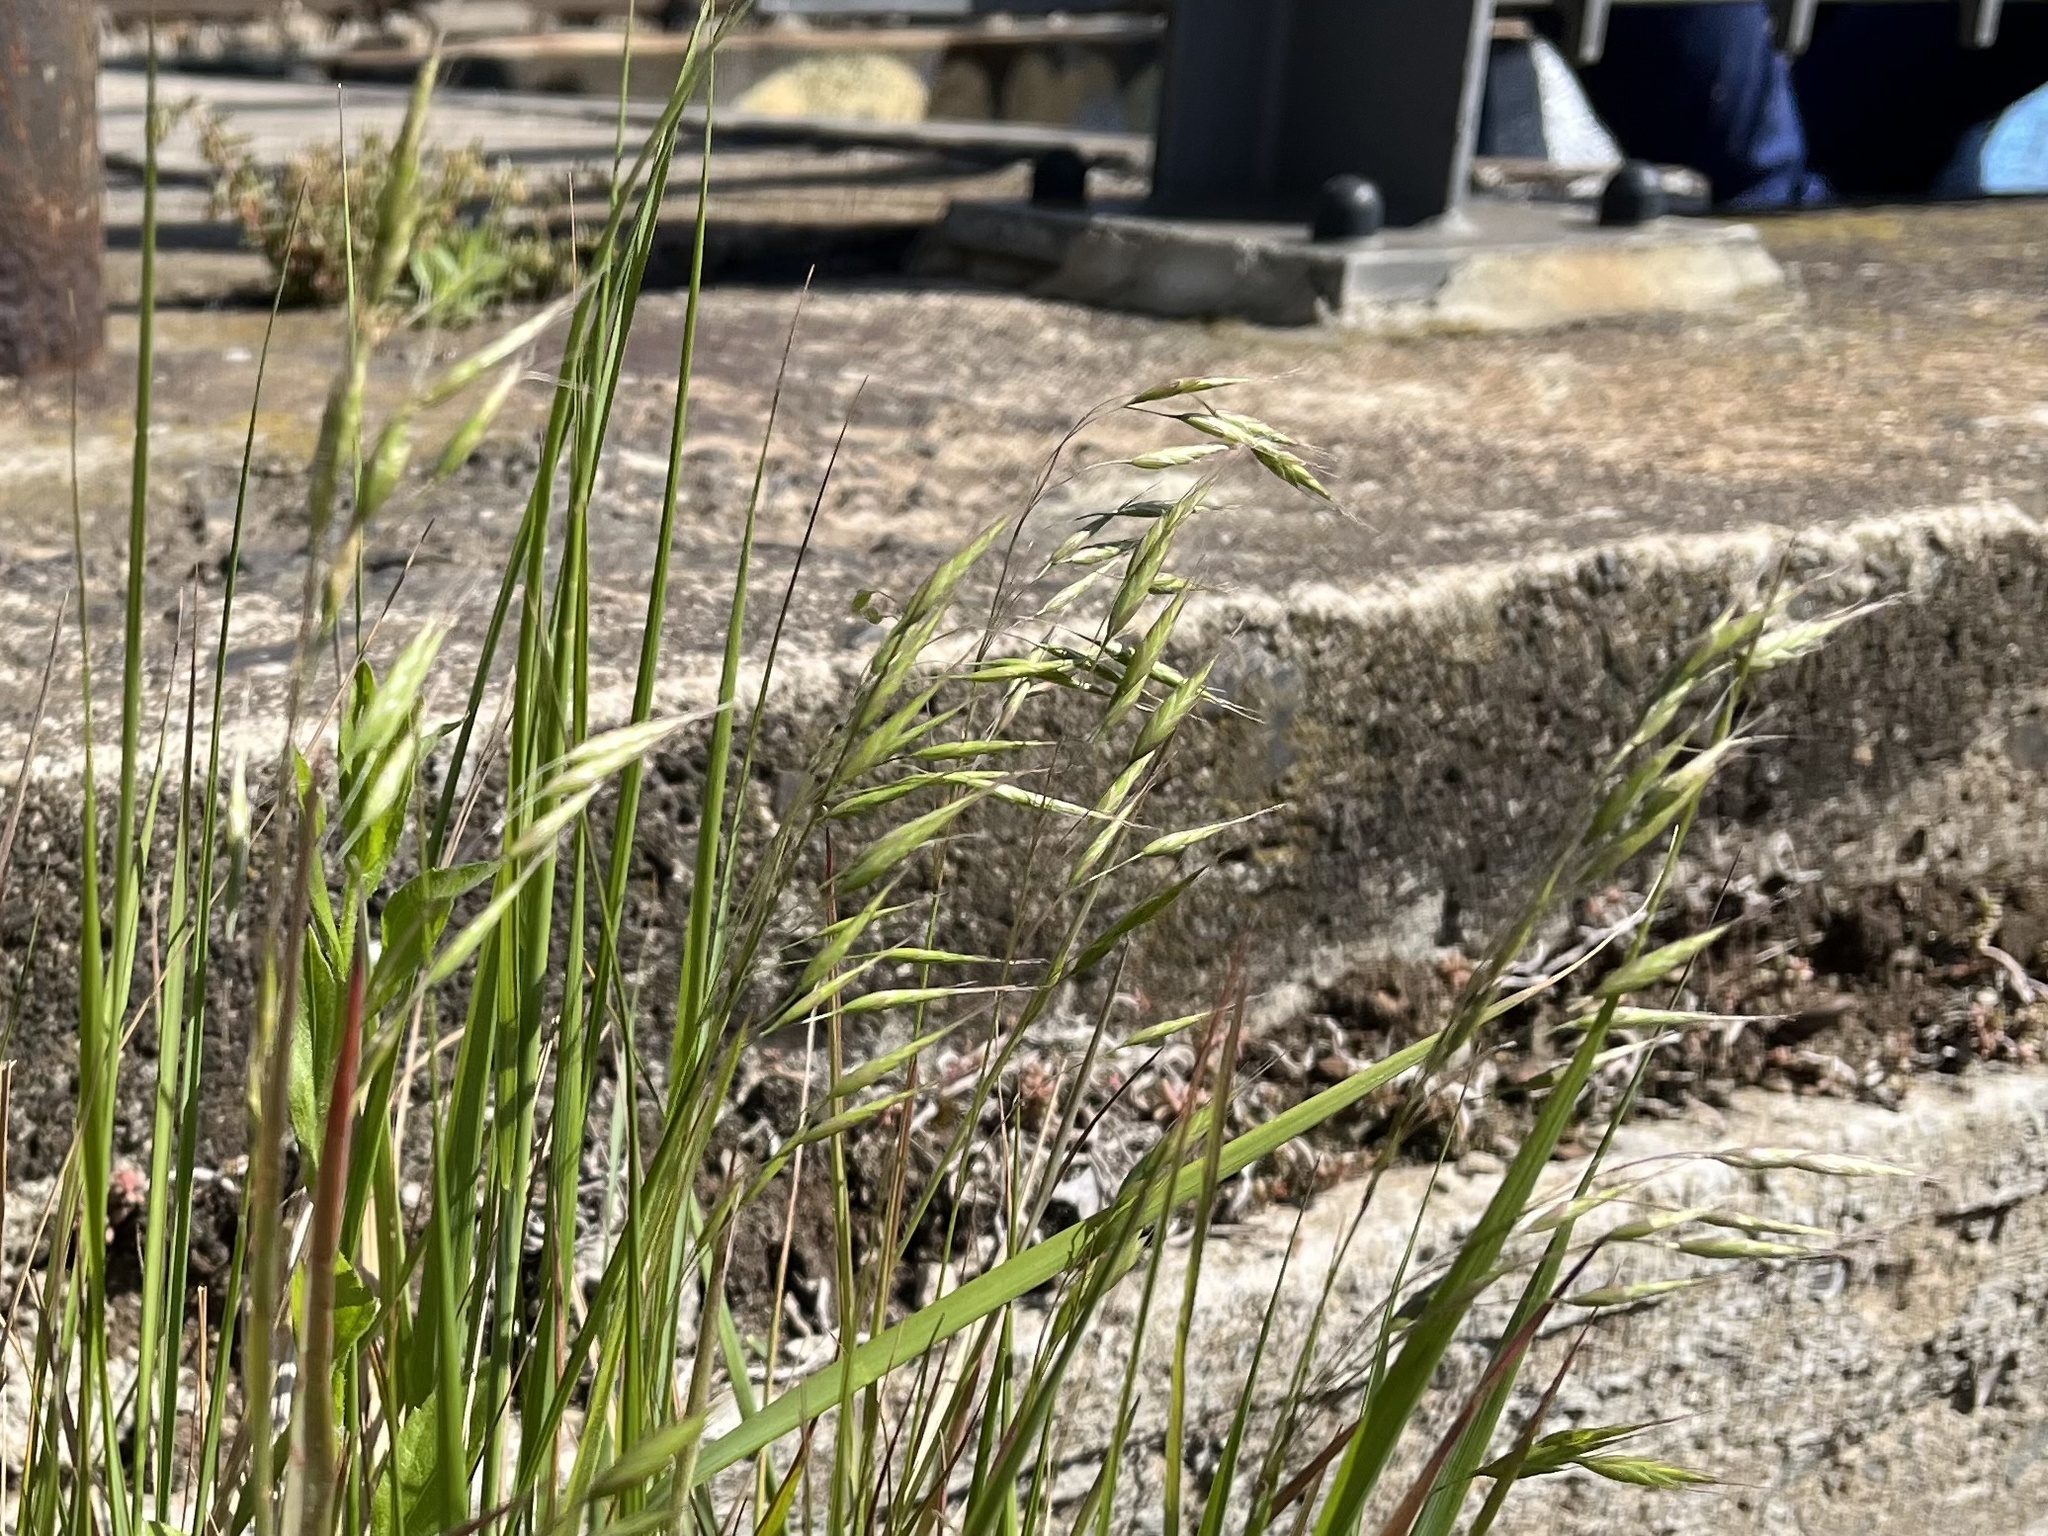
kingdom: Plantae
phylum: Tracheophyta
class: Liliopsida
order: Poales
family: Poaceae
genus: Bromus
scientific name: Bromus japonicus
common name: Japanese brome
